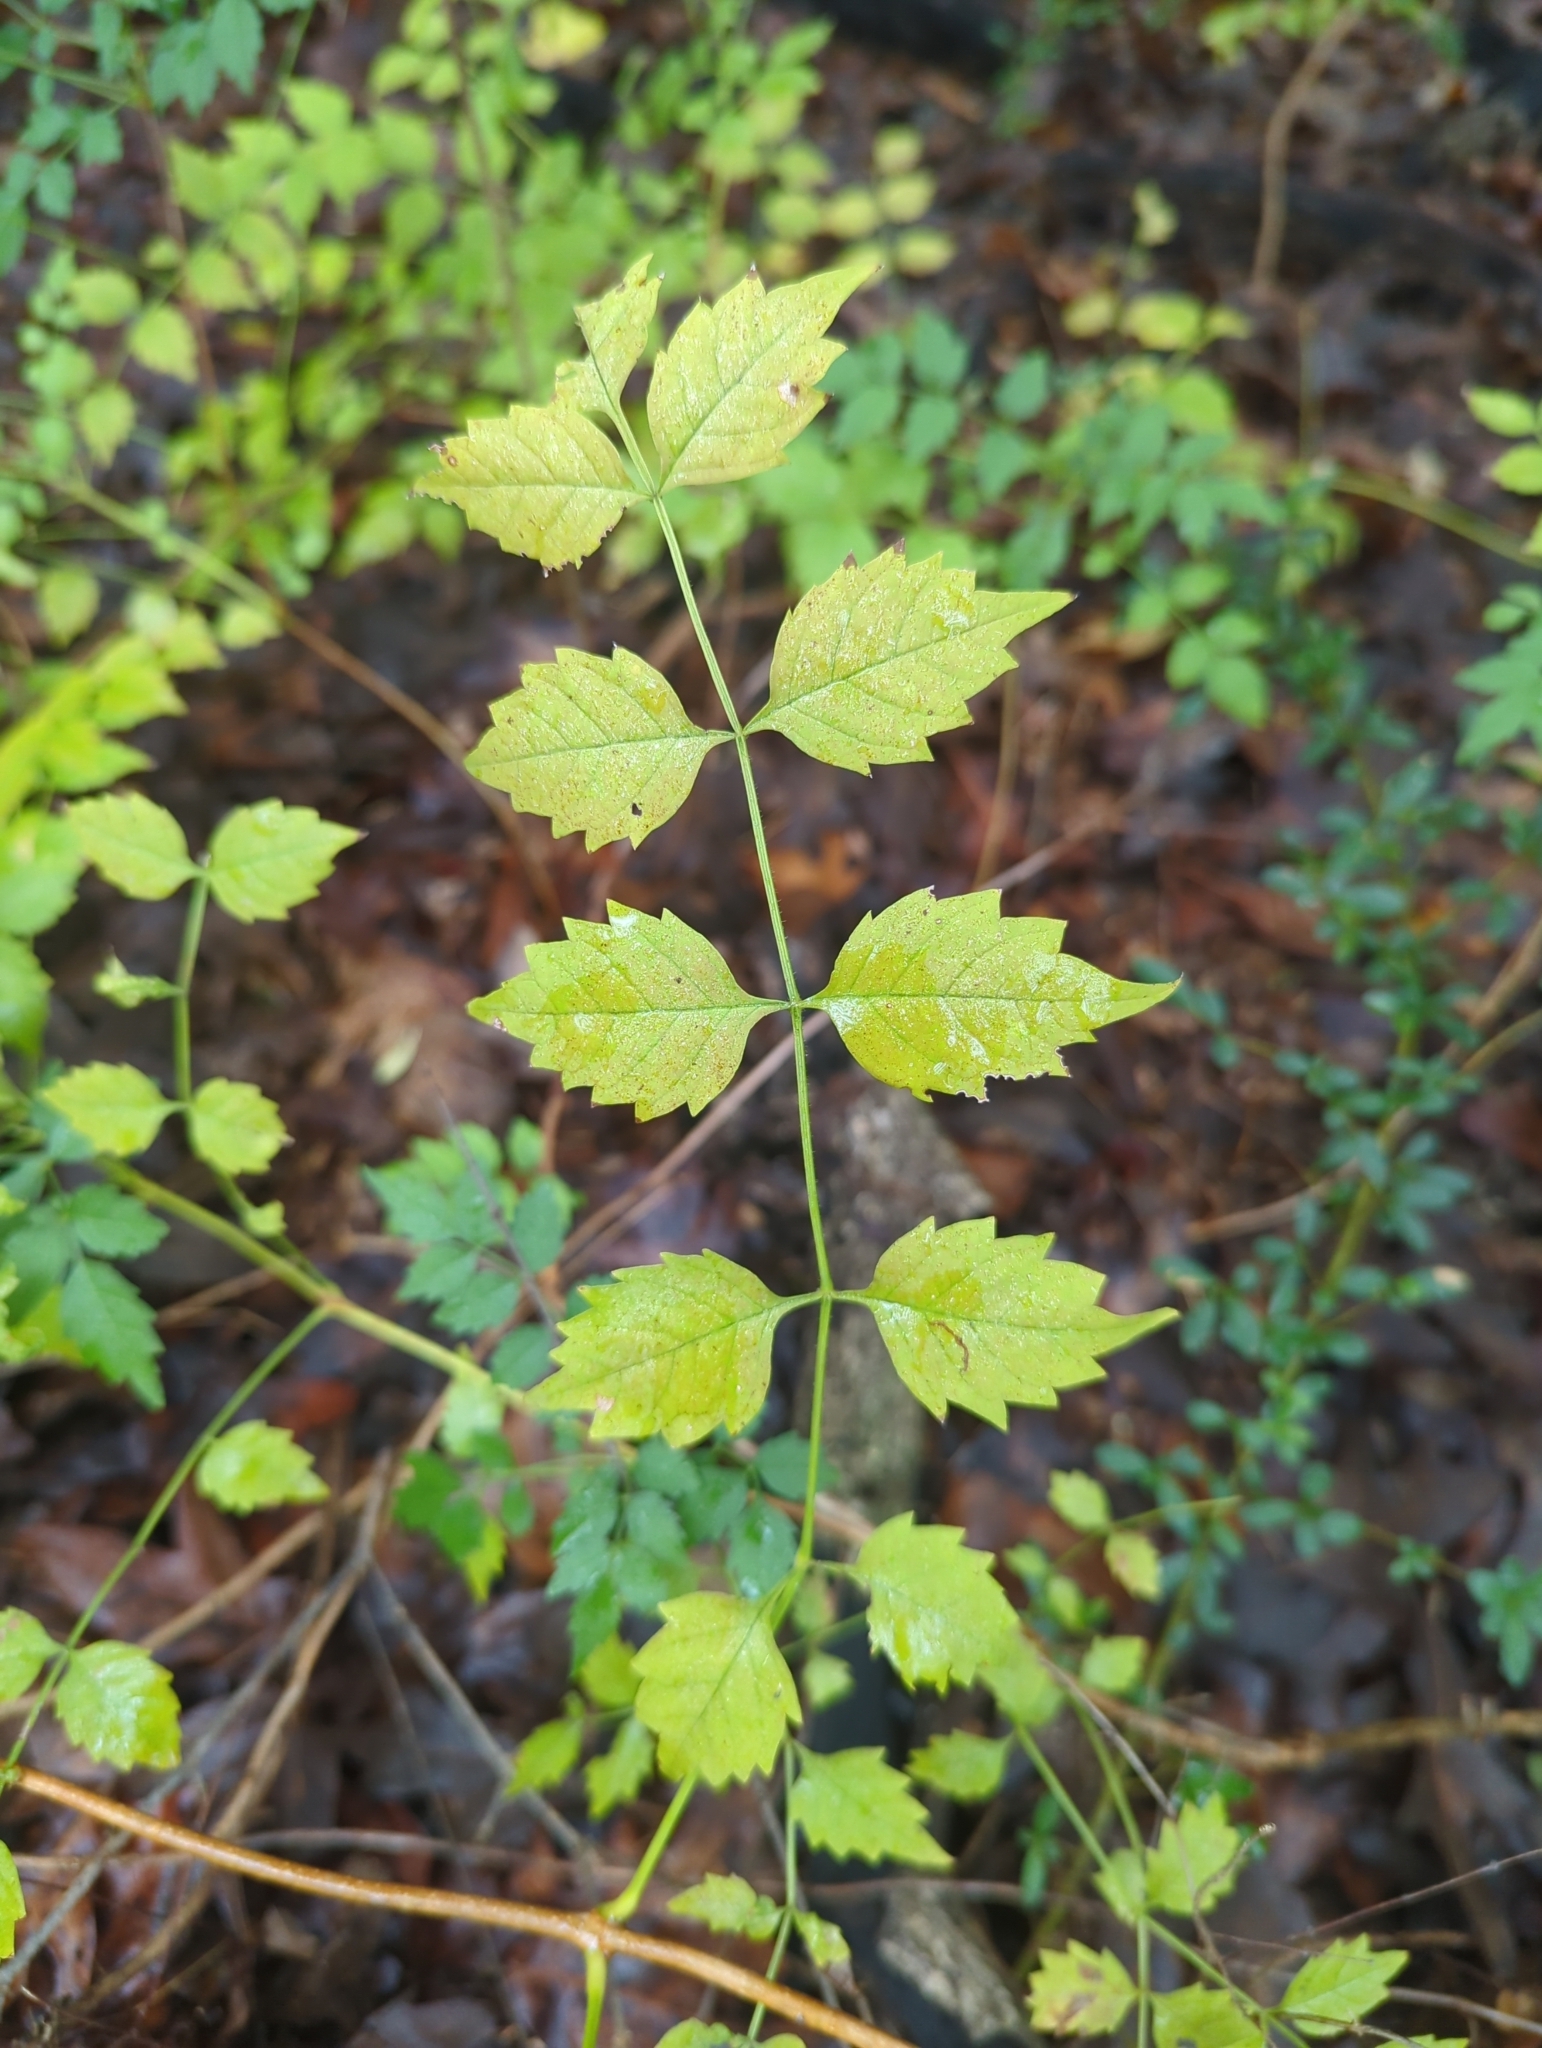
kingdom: Plantae
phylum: Tracheophyta
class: Magnoliopsida
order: Lamiales
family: Bignoniaceae
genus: Campsis
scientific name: Campsis radicans
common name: Trumpet-creeper
